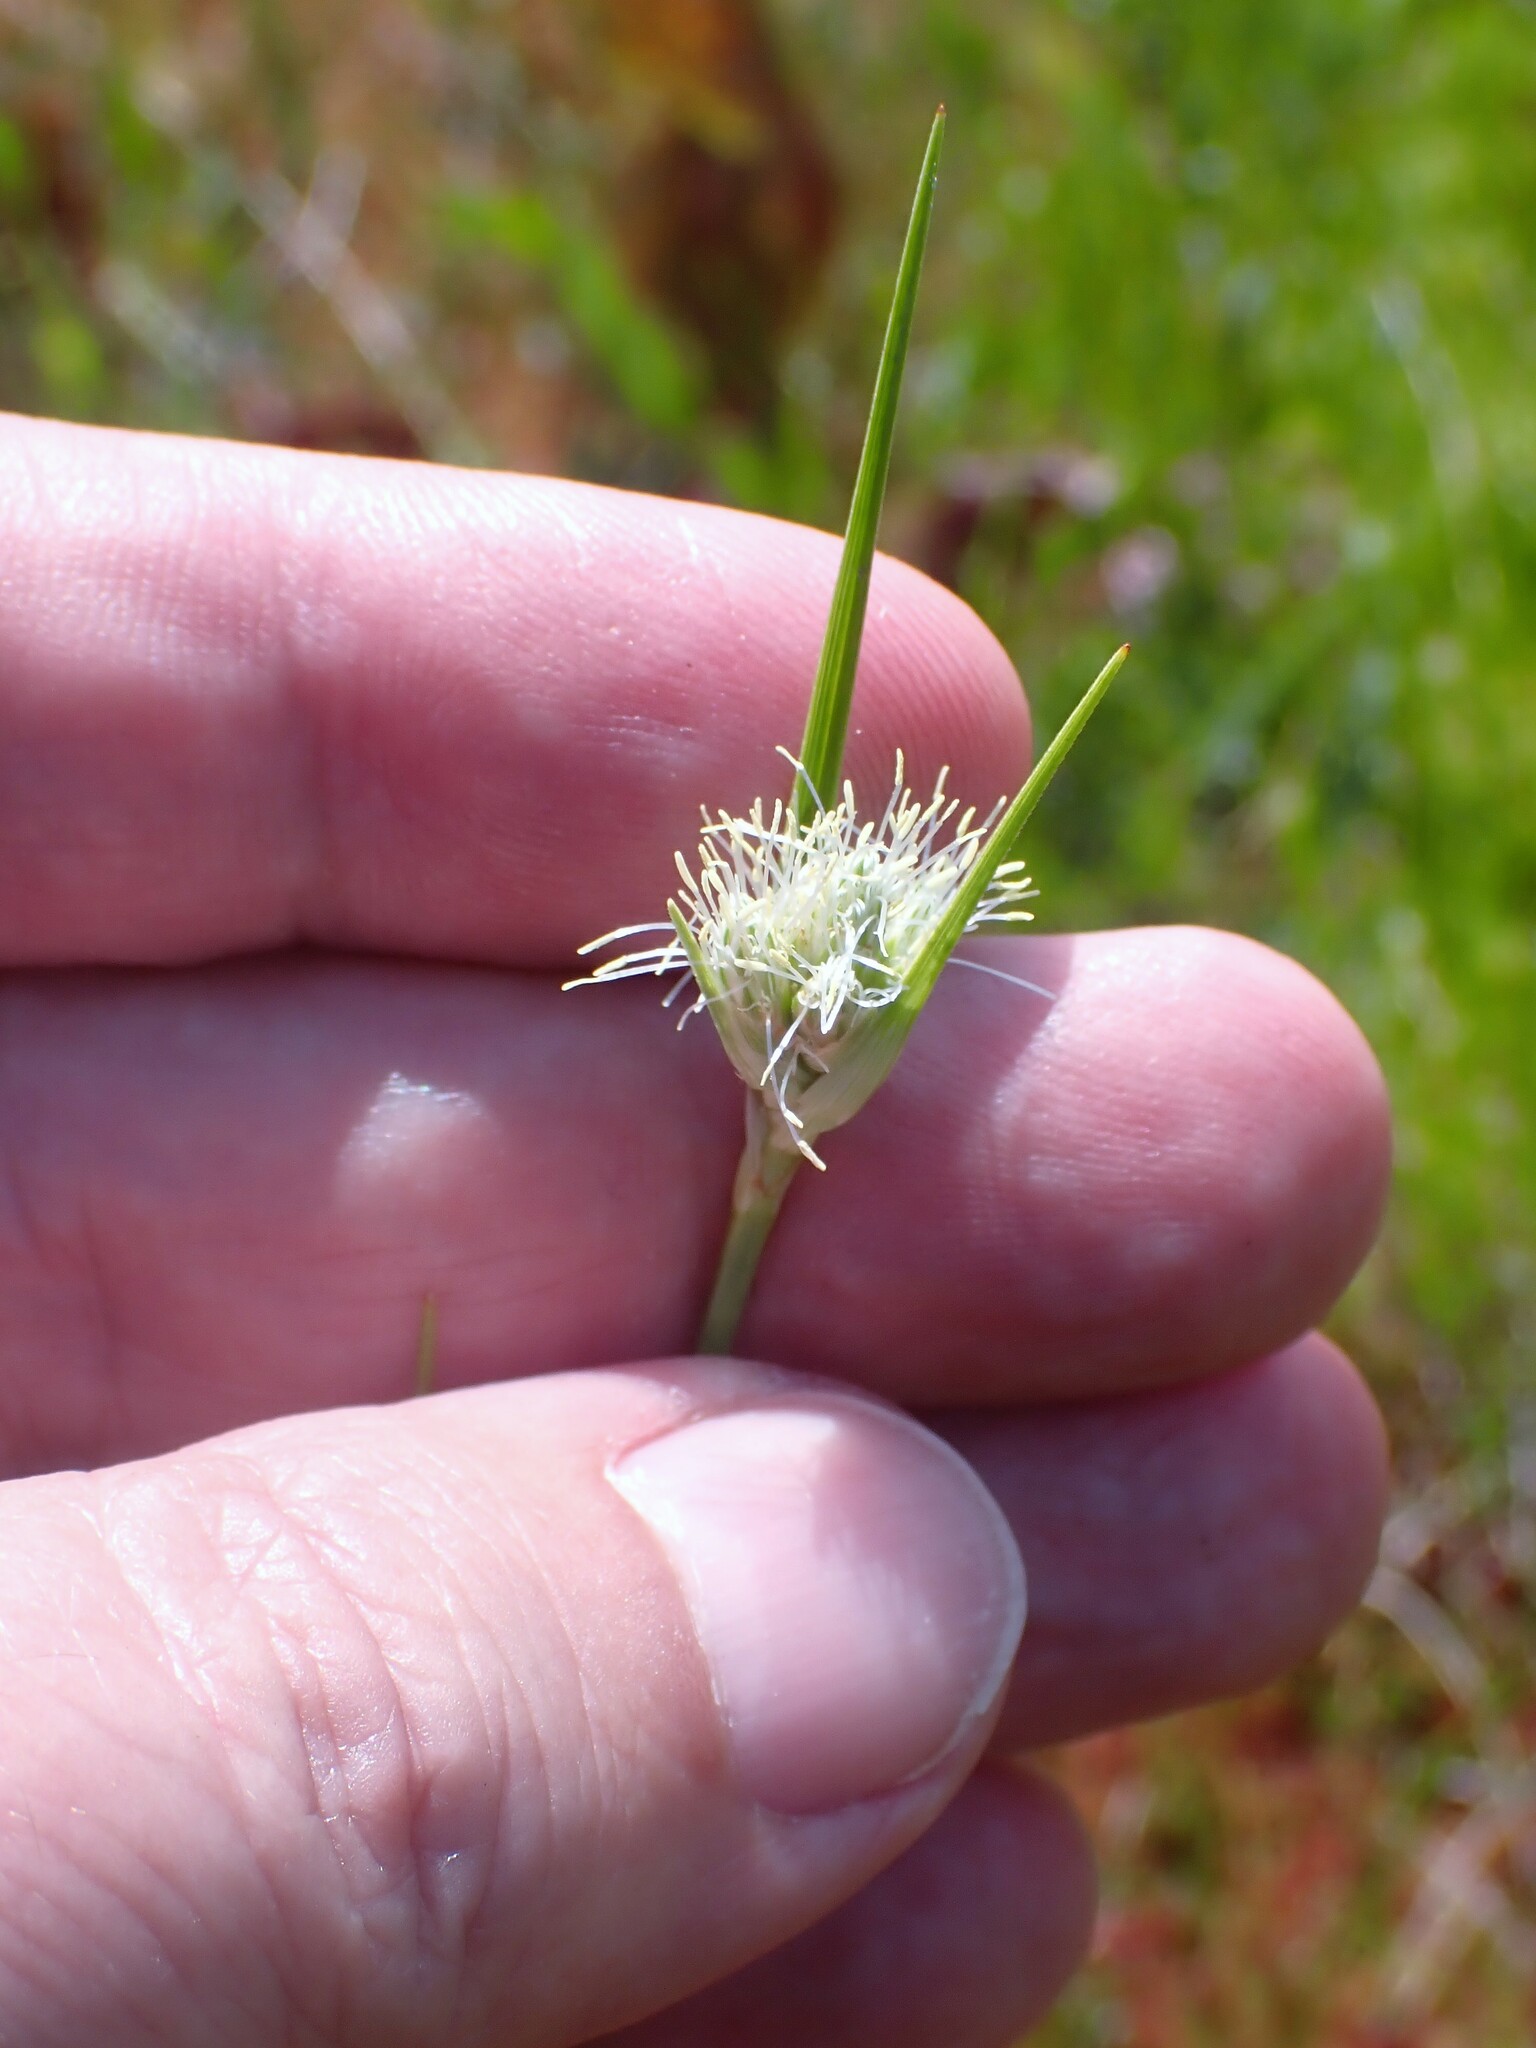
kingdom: Plantae
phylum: Tracheophyta
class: Liliopsida
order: Poales
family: Cyperaceae
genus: Eriophorum
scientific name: Eriophorum virginicum
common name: Tawny cottongrass
